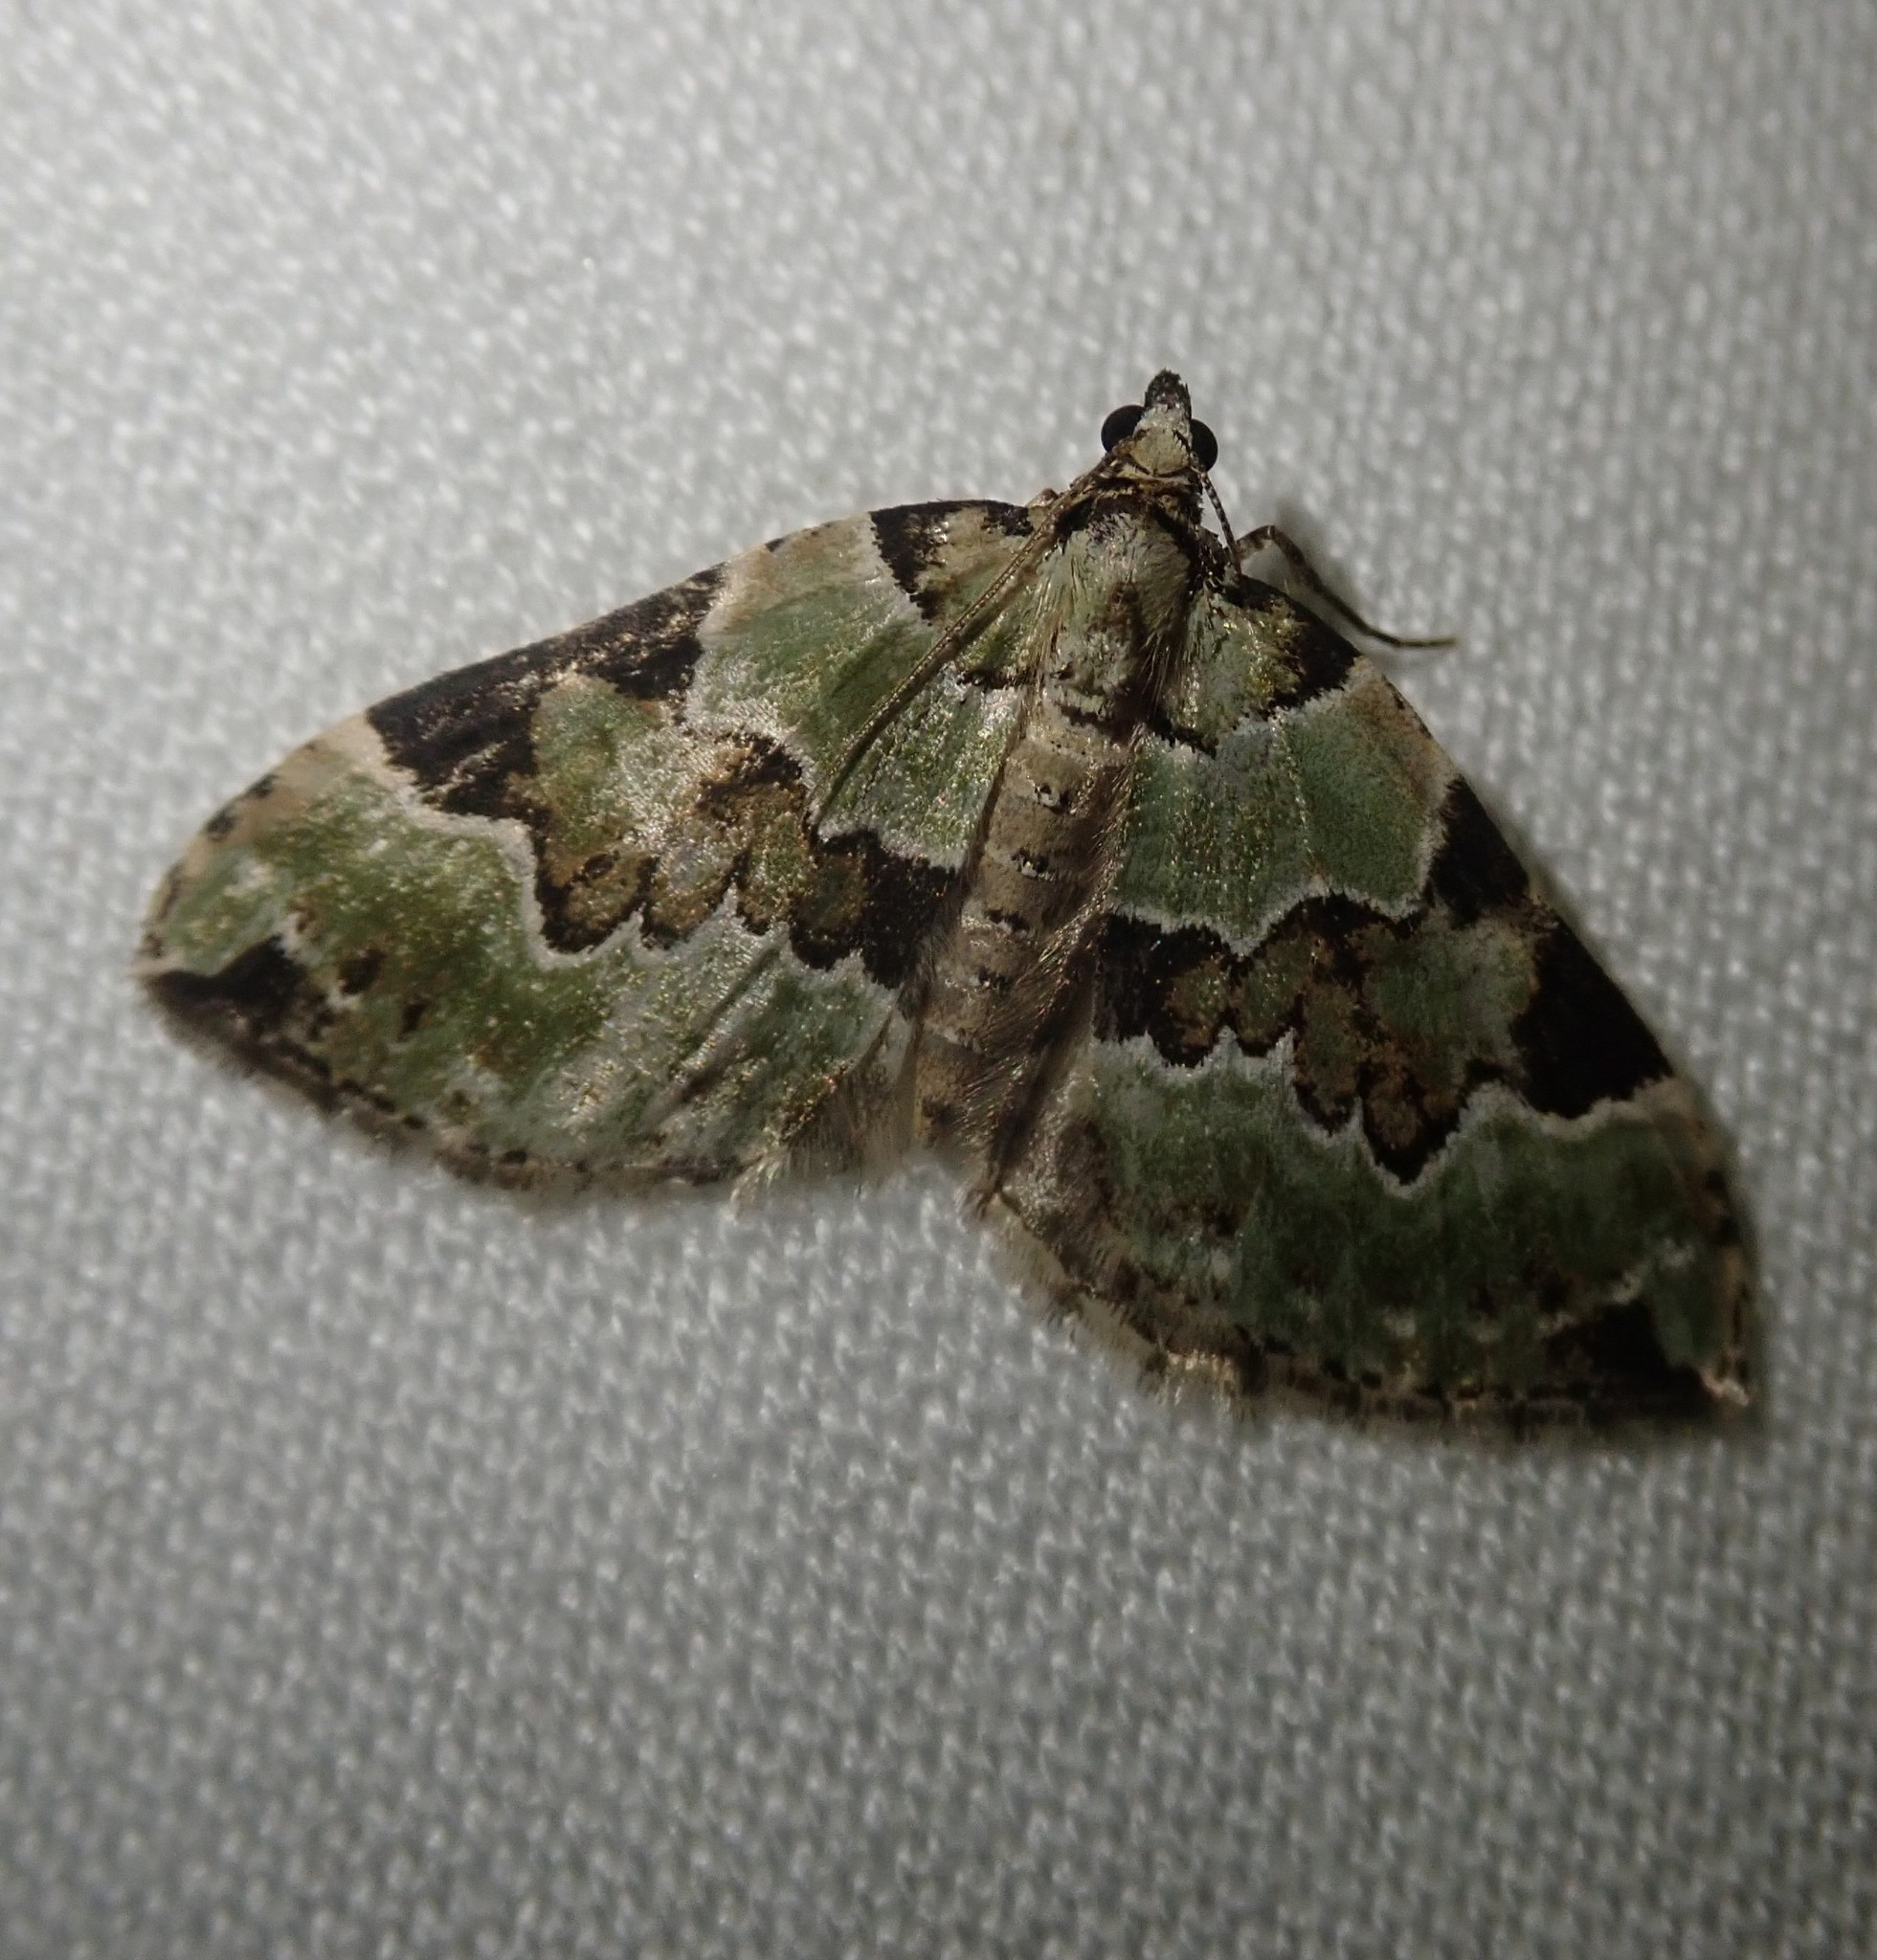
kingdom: Animalia
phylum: Arthropoda
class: Insecta
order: Lepidoptera
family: Geometridae
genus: Colostygia
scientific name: Colostygia pectinataria
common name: Green carpet
